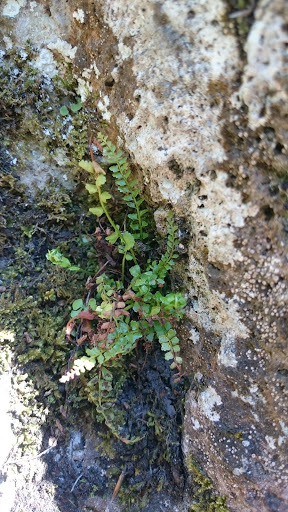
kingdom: Plantae
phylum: Tracheophyta
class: Polypodiopsida
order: Polypodiales
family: Aspleniaceae
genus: Asplenium
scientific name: Asplenium viride
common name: Green spleenwort
